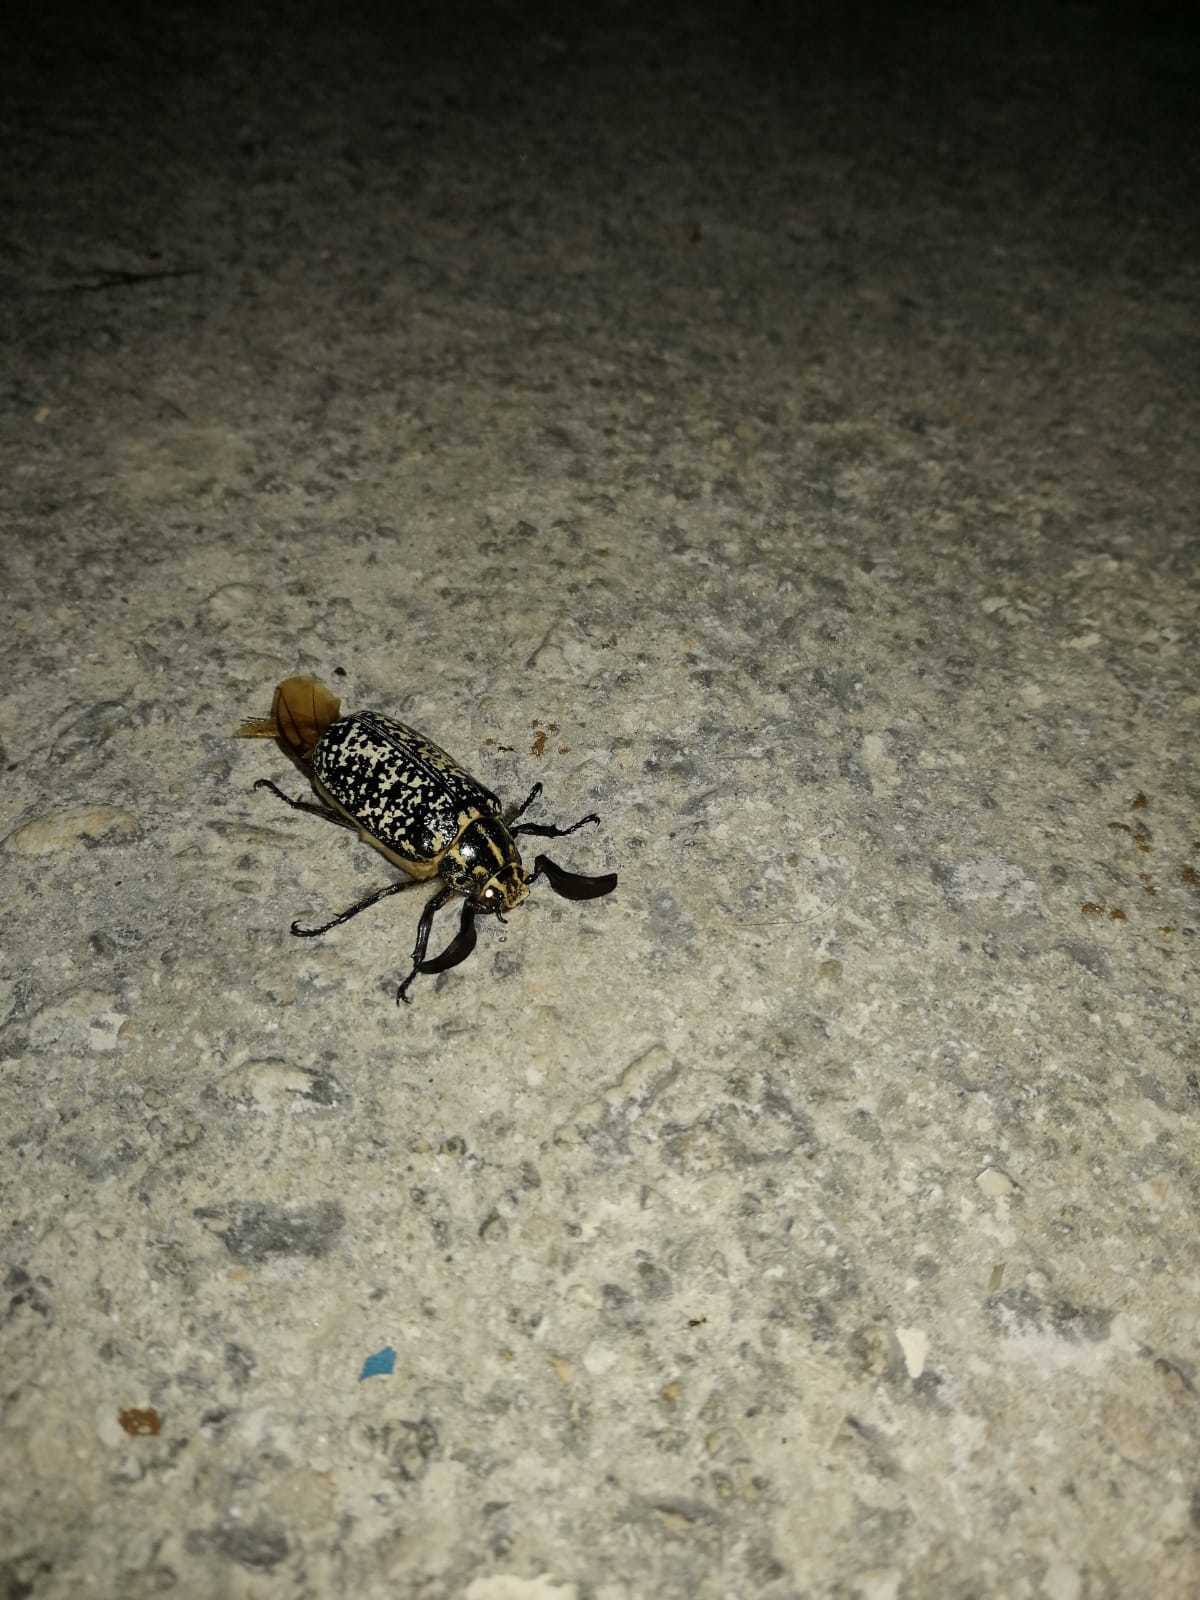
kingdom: Animalia
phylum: Arthropoda
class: Insecta
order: Coleoptera
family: Scarabaeidae
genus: Polyphylla
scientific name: Polyphylla fullo
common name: Pine chafer
